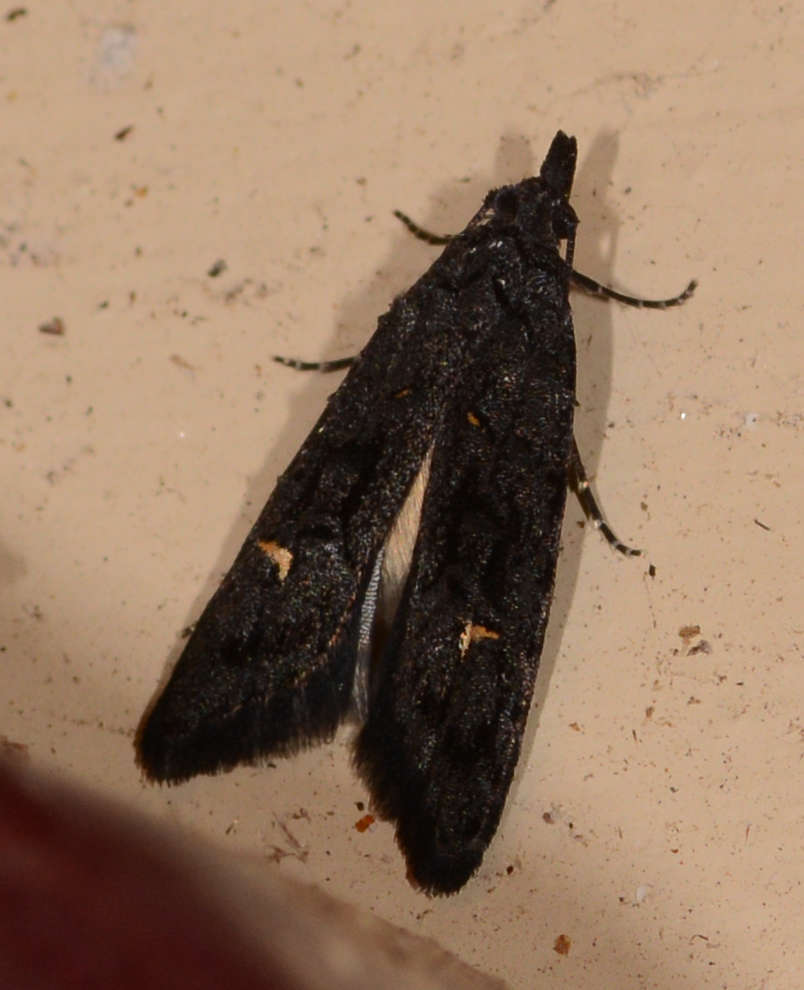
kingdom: Animalia
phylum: Arthropoda
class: Insecta
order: Lepidoptera
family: Carposinidae
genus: Bondia
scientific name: Bondia nigella
